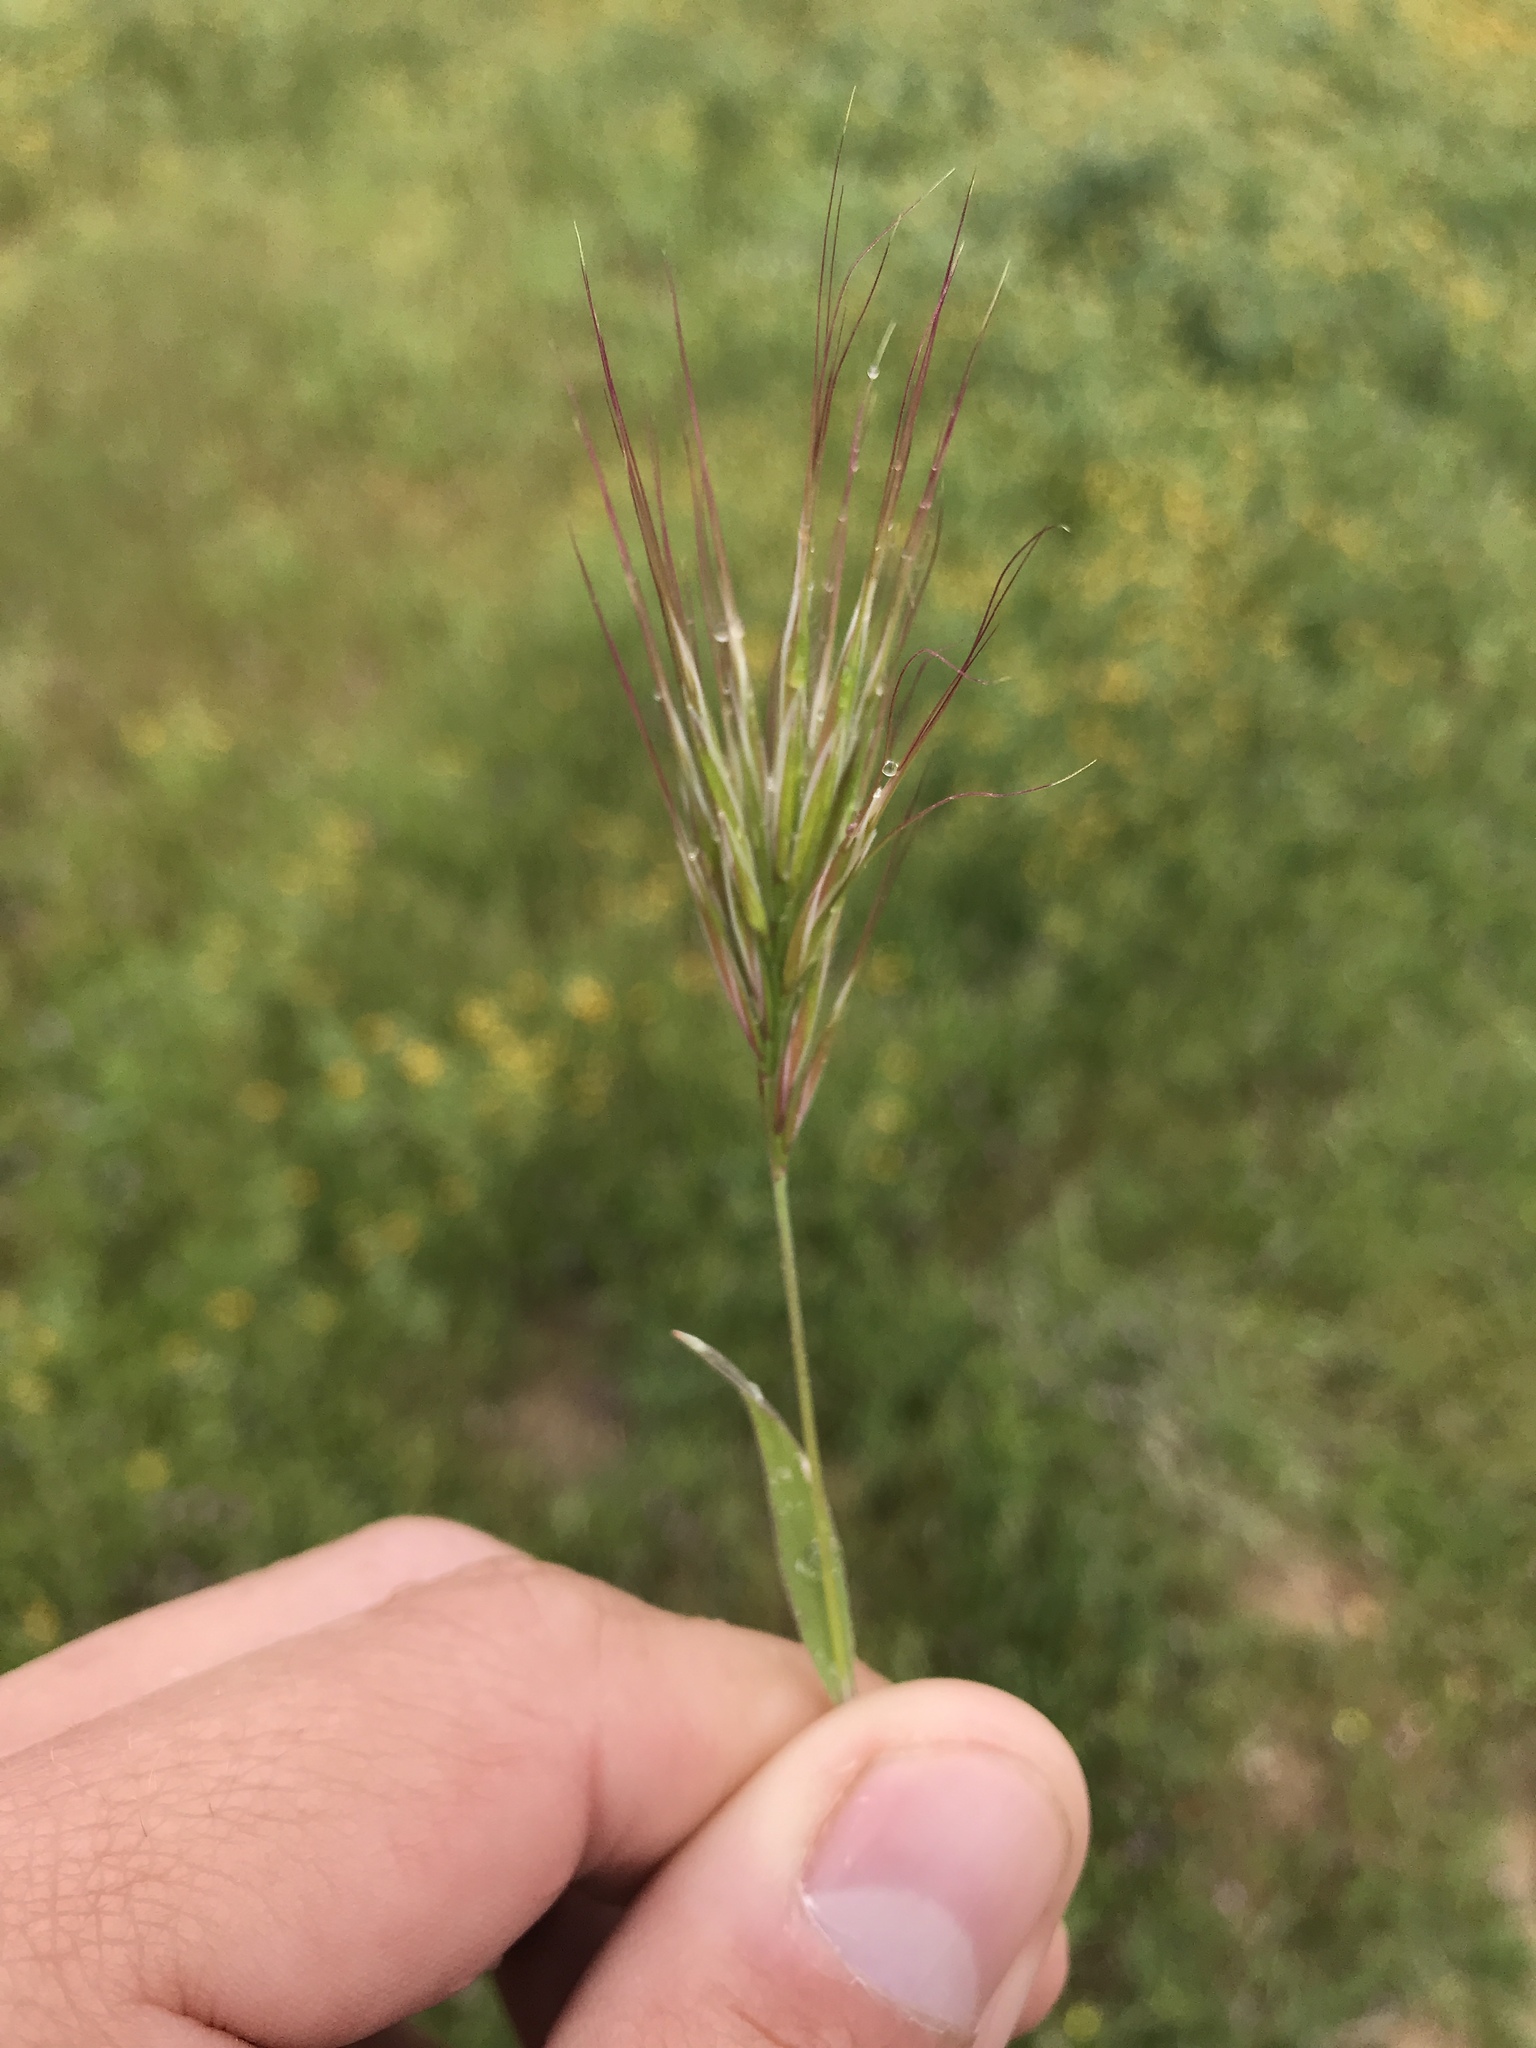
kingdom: Plantae
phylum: Tracheophyta
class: Liliopsida
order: Poales
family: Poaceae
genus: Bromus
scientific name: Bromus rubens
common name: Red brome
